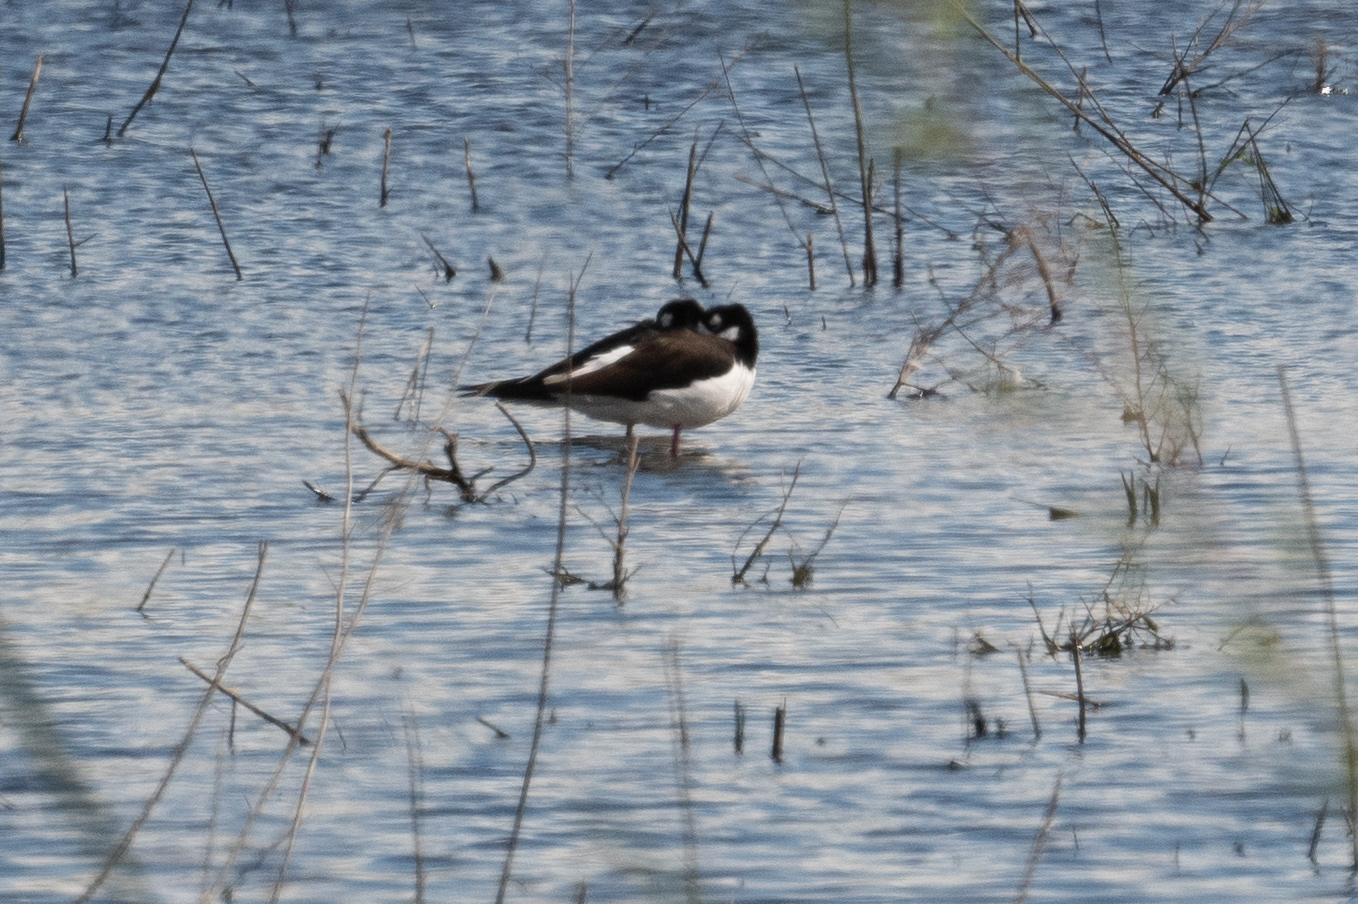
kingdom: Animalia
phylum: Chordata
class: Aves
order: Charadriiformes
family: Recurvirostridae
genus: Himantopus
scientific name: Himantopus mexicanus
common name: Black-necked stilt
